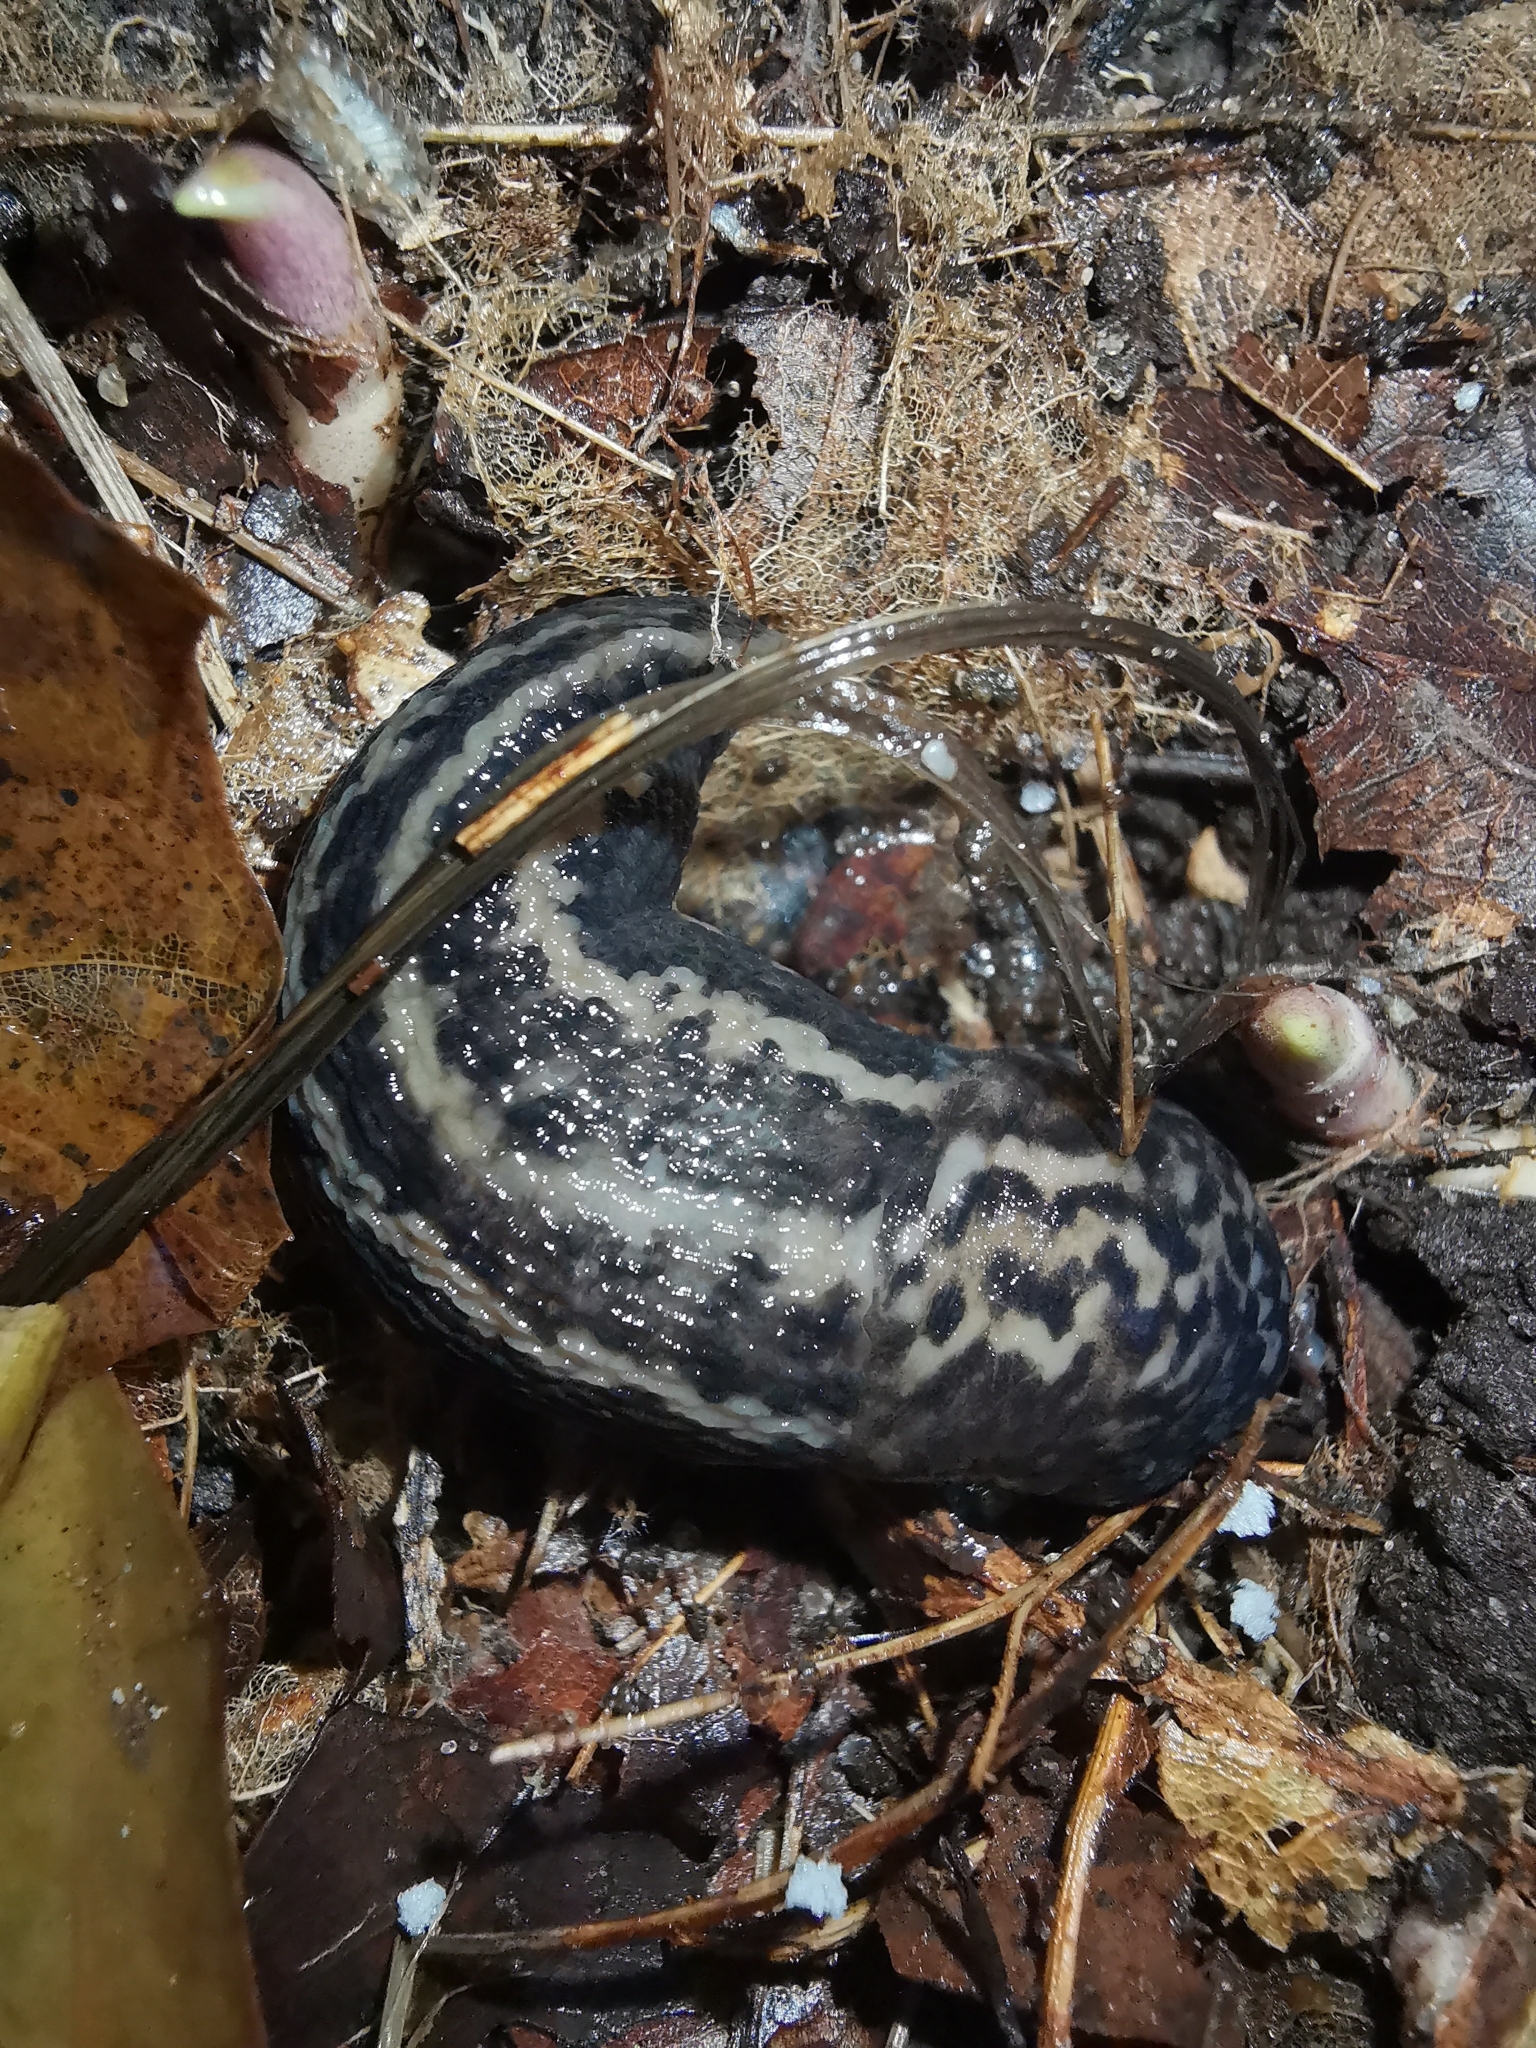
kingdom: Animalia
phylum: Mollusca
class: Gastropoda
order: Stylommatophora
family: Limacidae
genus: Limax
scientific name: Limax maximus
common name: Great grey slug
